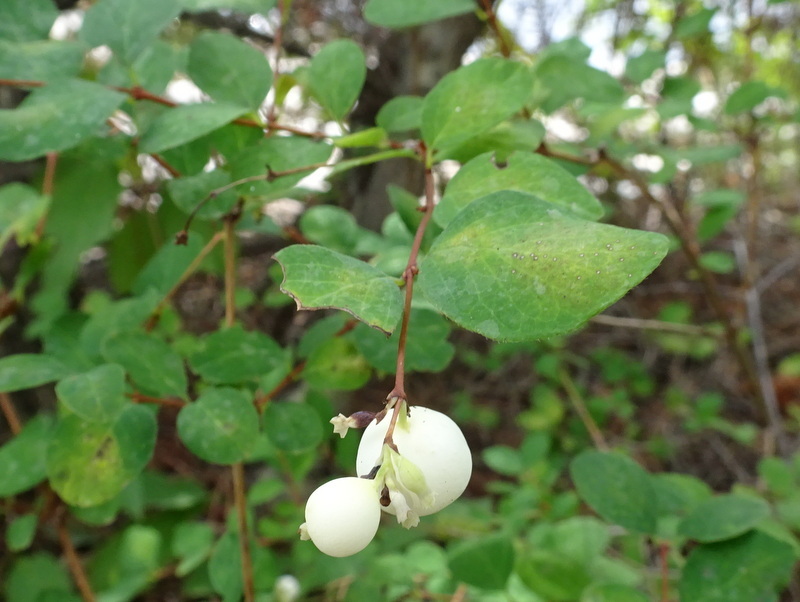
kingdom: Plantae
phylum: Tracheophyta
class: Magnoliopsida
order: Dipsacales
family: Caprifoliaceae
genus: Symphoricarpos
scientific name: Symphoricarpos albus
